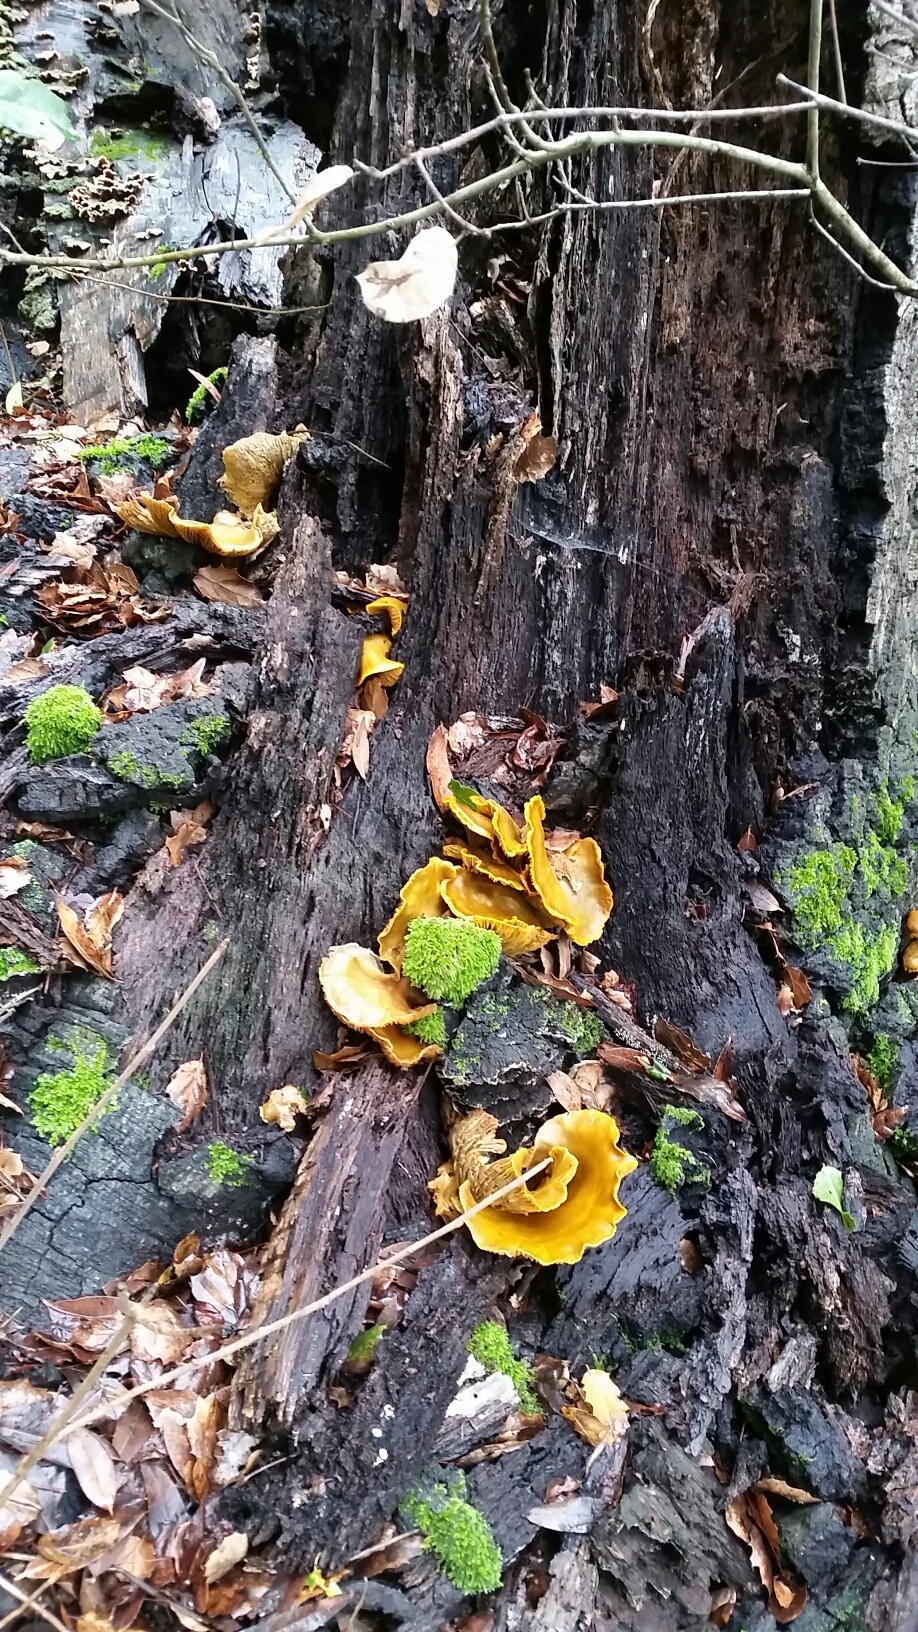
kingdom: Fungi
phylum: Basidiomycota
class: Agaricomycetes
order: Agaricales
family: Omphalotaceae
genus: Omphalotus
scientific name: Omphalotus olivascens
